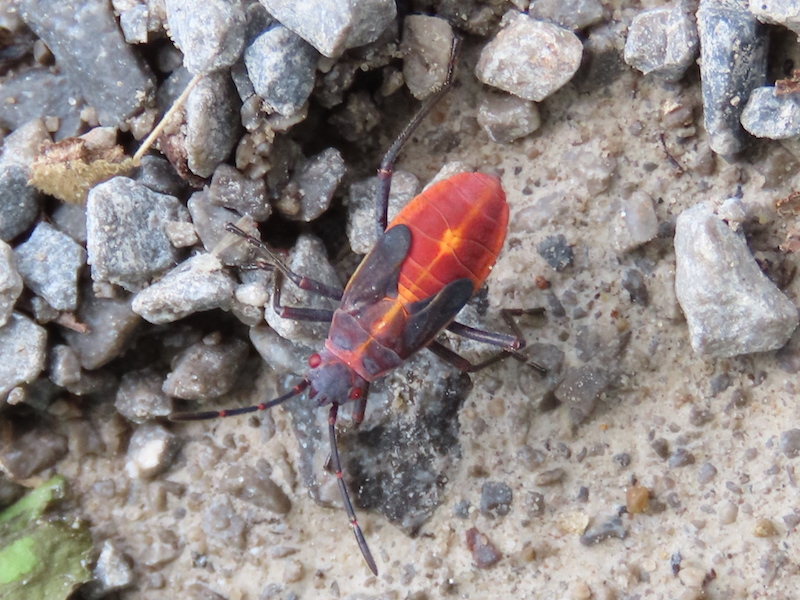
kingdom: Animalia
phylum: Arthropoda
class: Insecta
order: Hemiptera
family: Rhopalidae
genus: Boisea
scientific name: Boisea trivittata
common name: Boxelder bug
